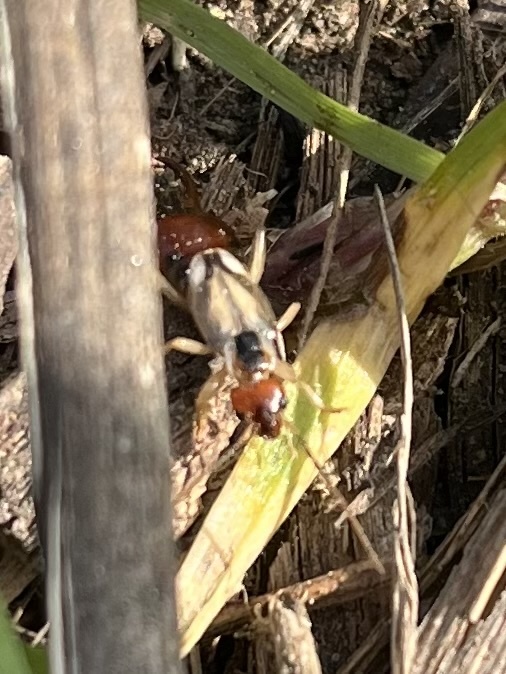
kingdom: Animalia
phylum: Arthropoda
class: Insecta
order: Dermaptera
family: Forficulidae
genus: Forficula
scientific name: Forficula dentata
